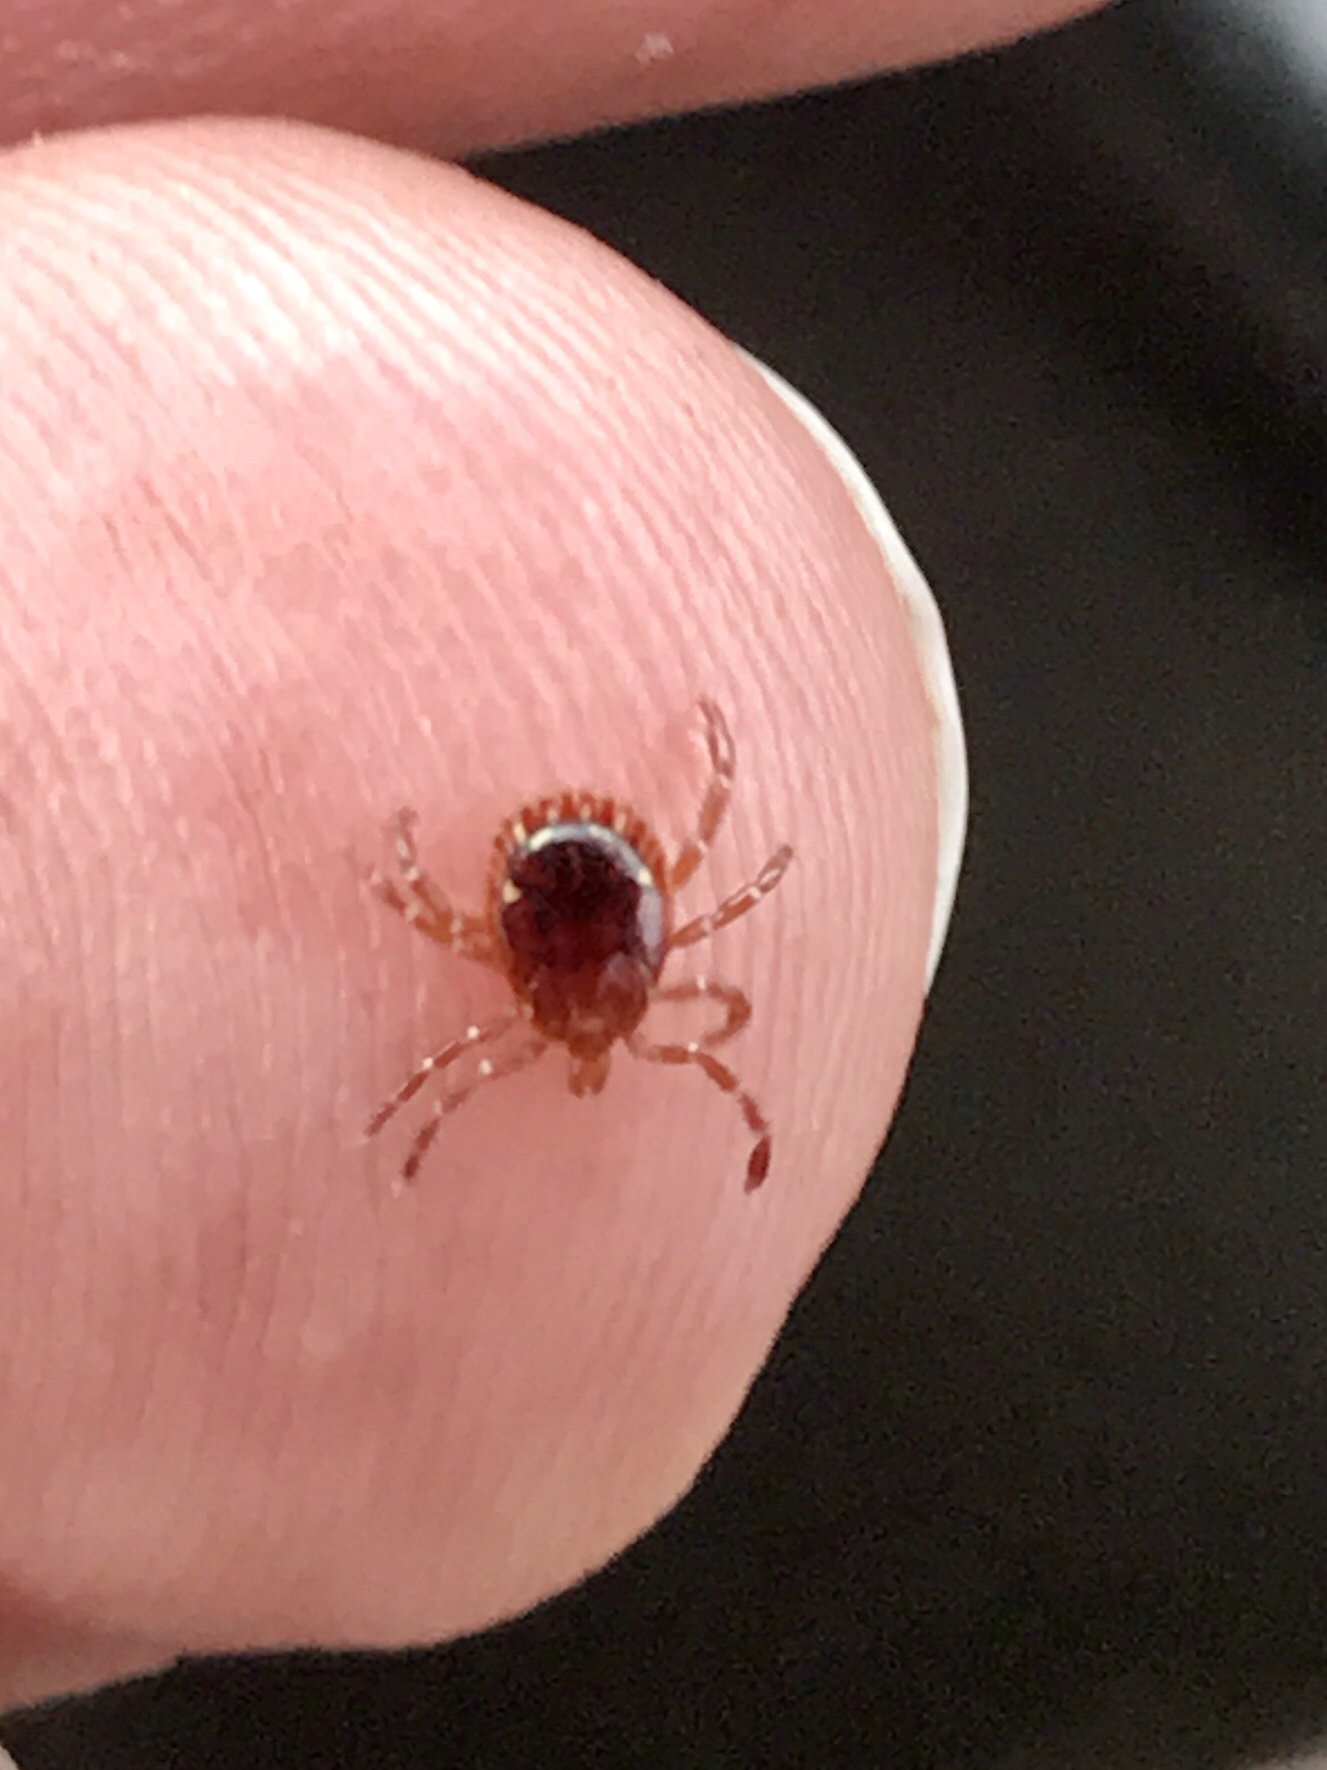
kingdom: Animalia
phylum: Arthropoda
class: Arachnida
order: Ixodida
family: Ixodidae
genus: Amblyomma
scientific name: Amblyomma americanum
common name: Lone star tick
